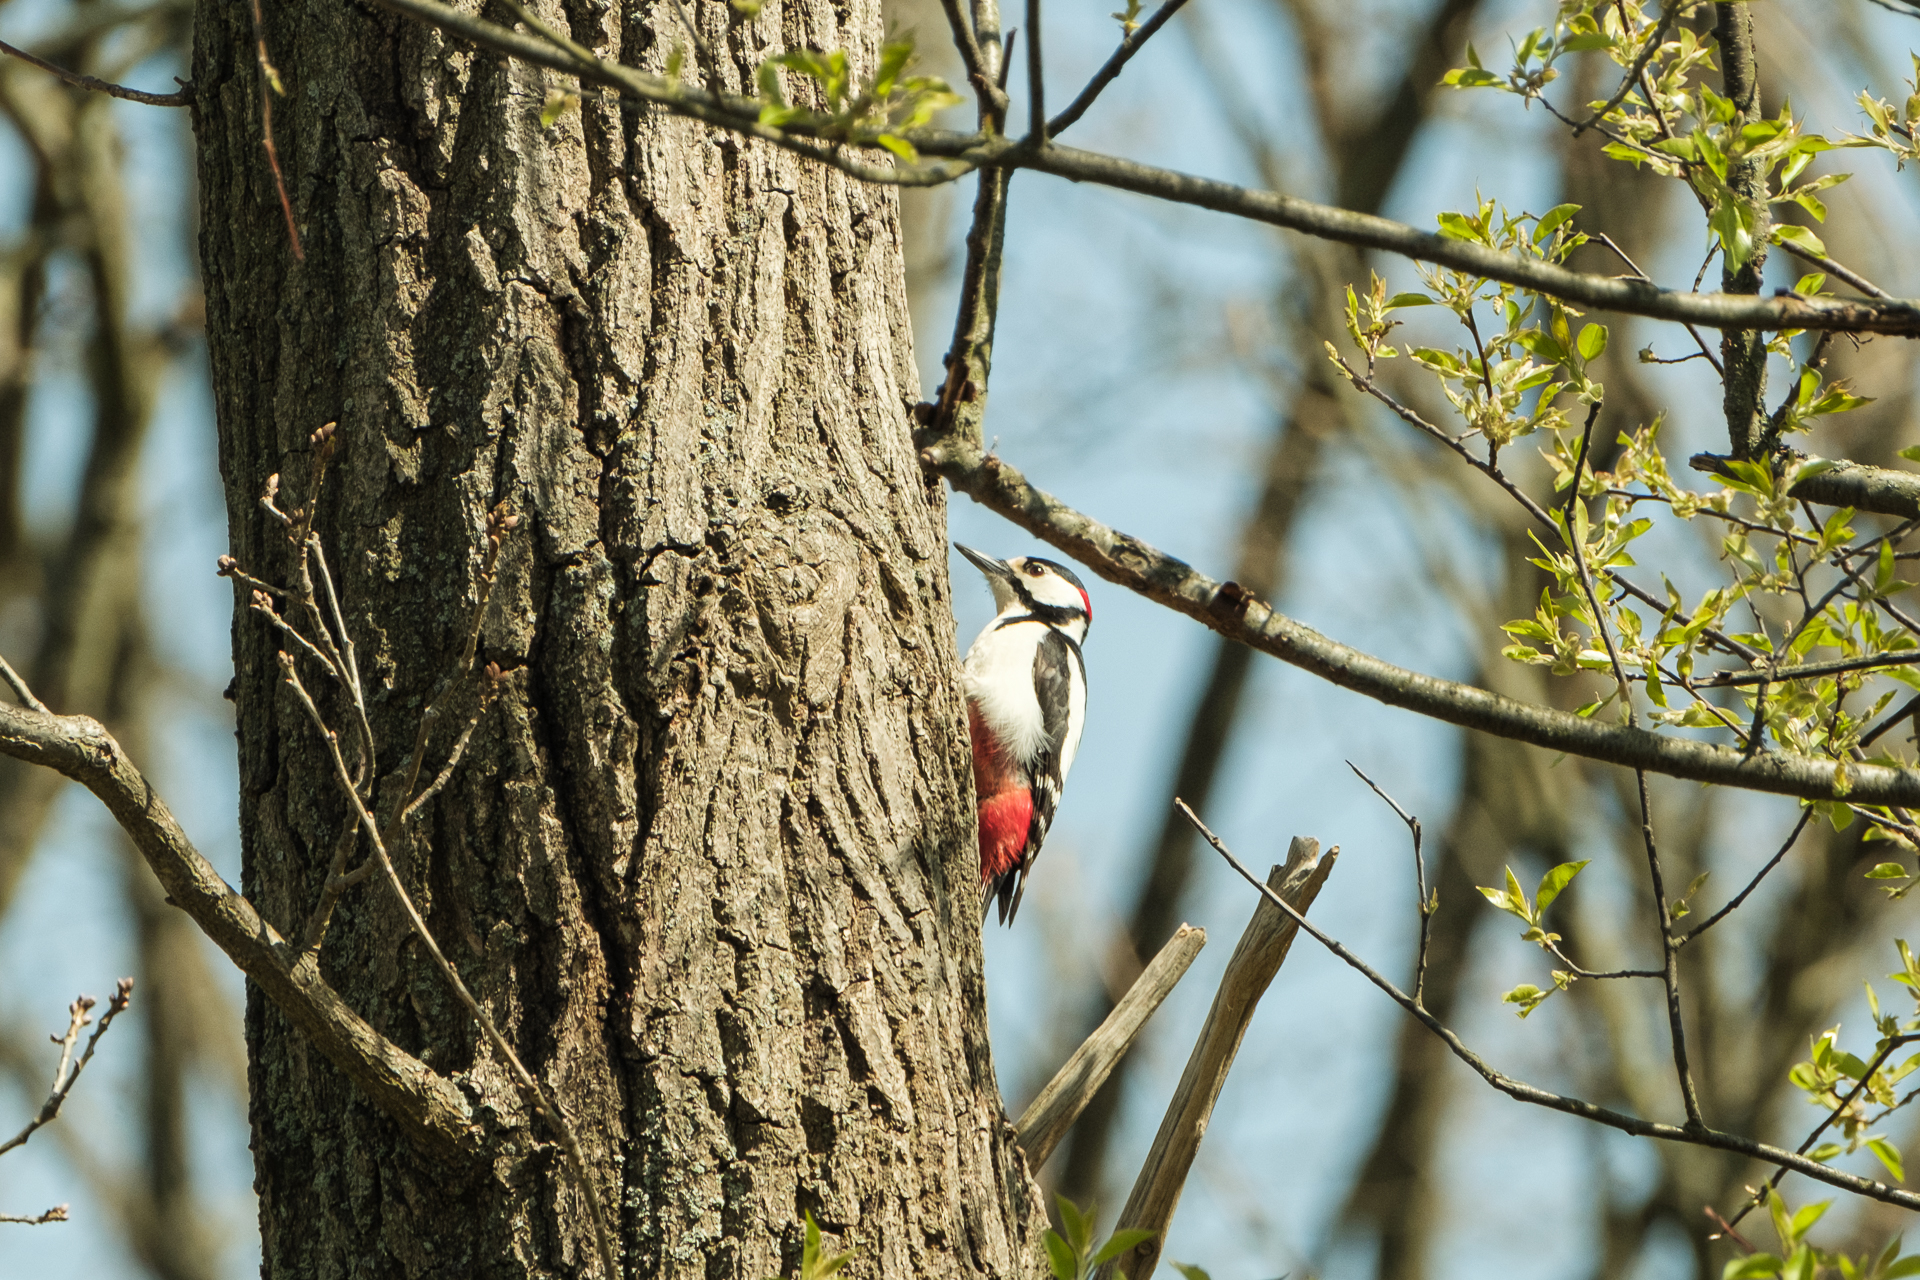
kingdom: Animalia
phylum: Chordata
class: Aves
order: Piciformes
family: Picidae
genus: Dendrocopos
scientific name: Dendrocopos major
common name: Great spotted woodpecker
